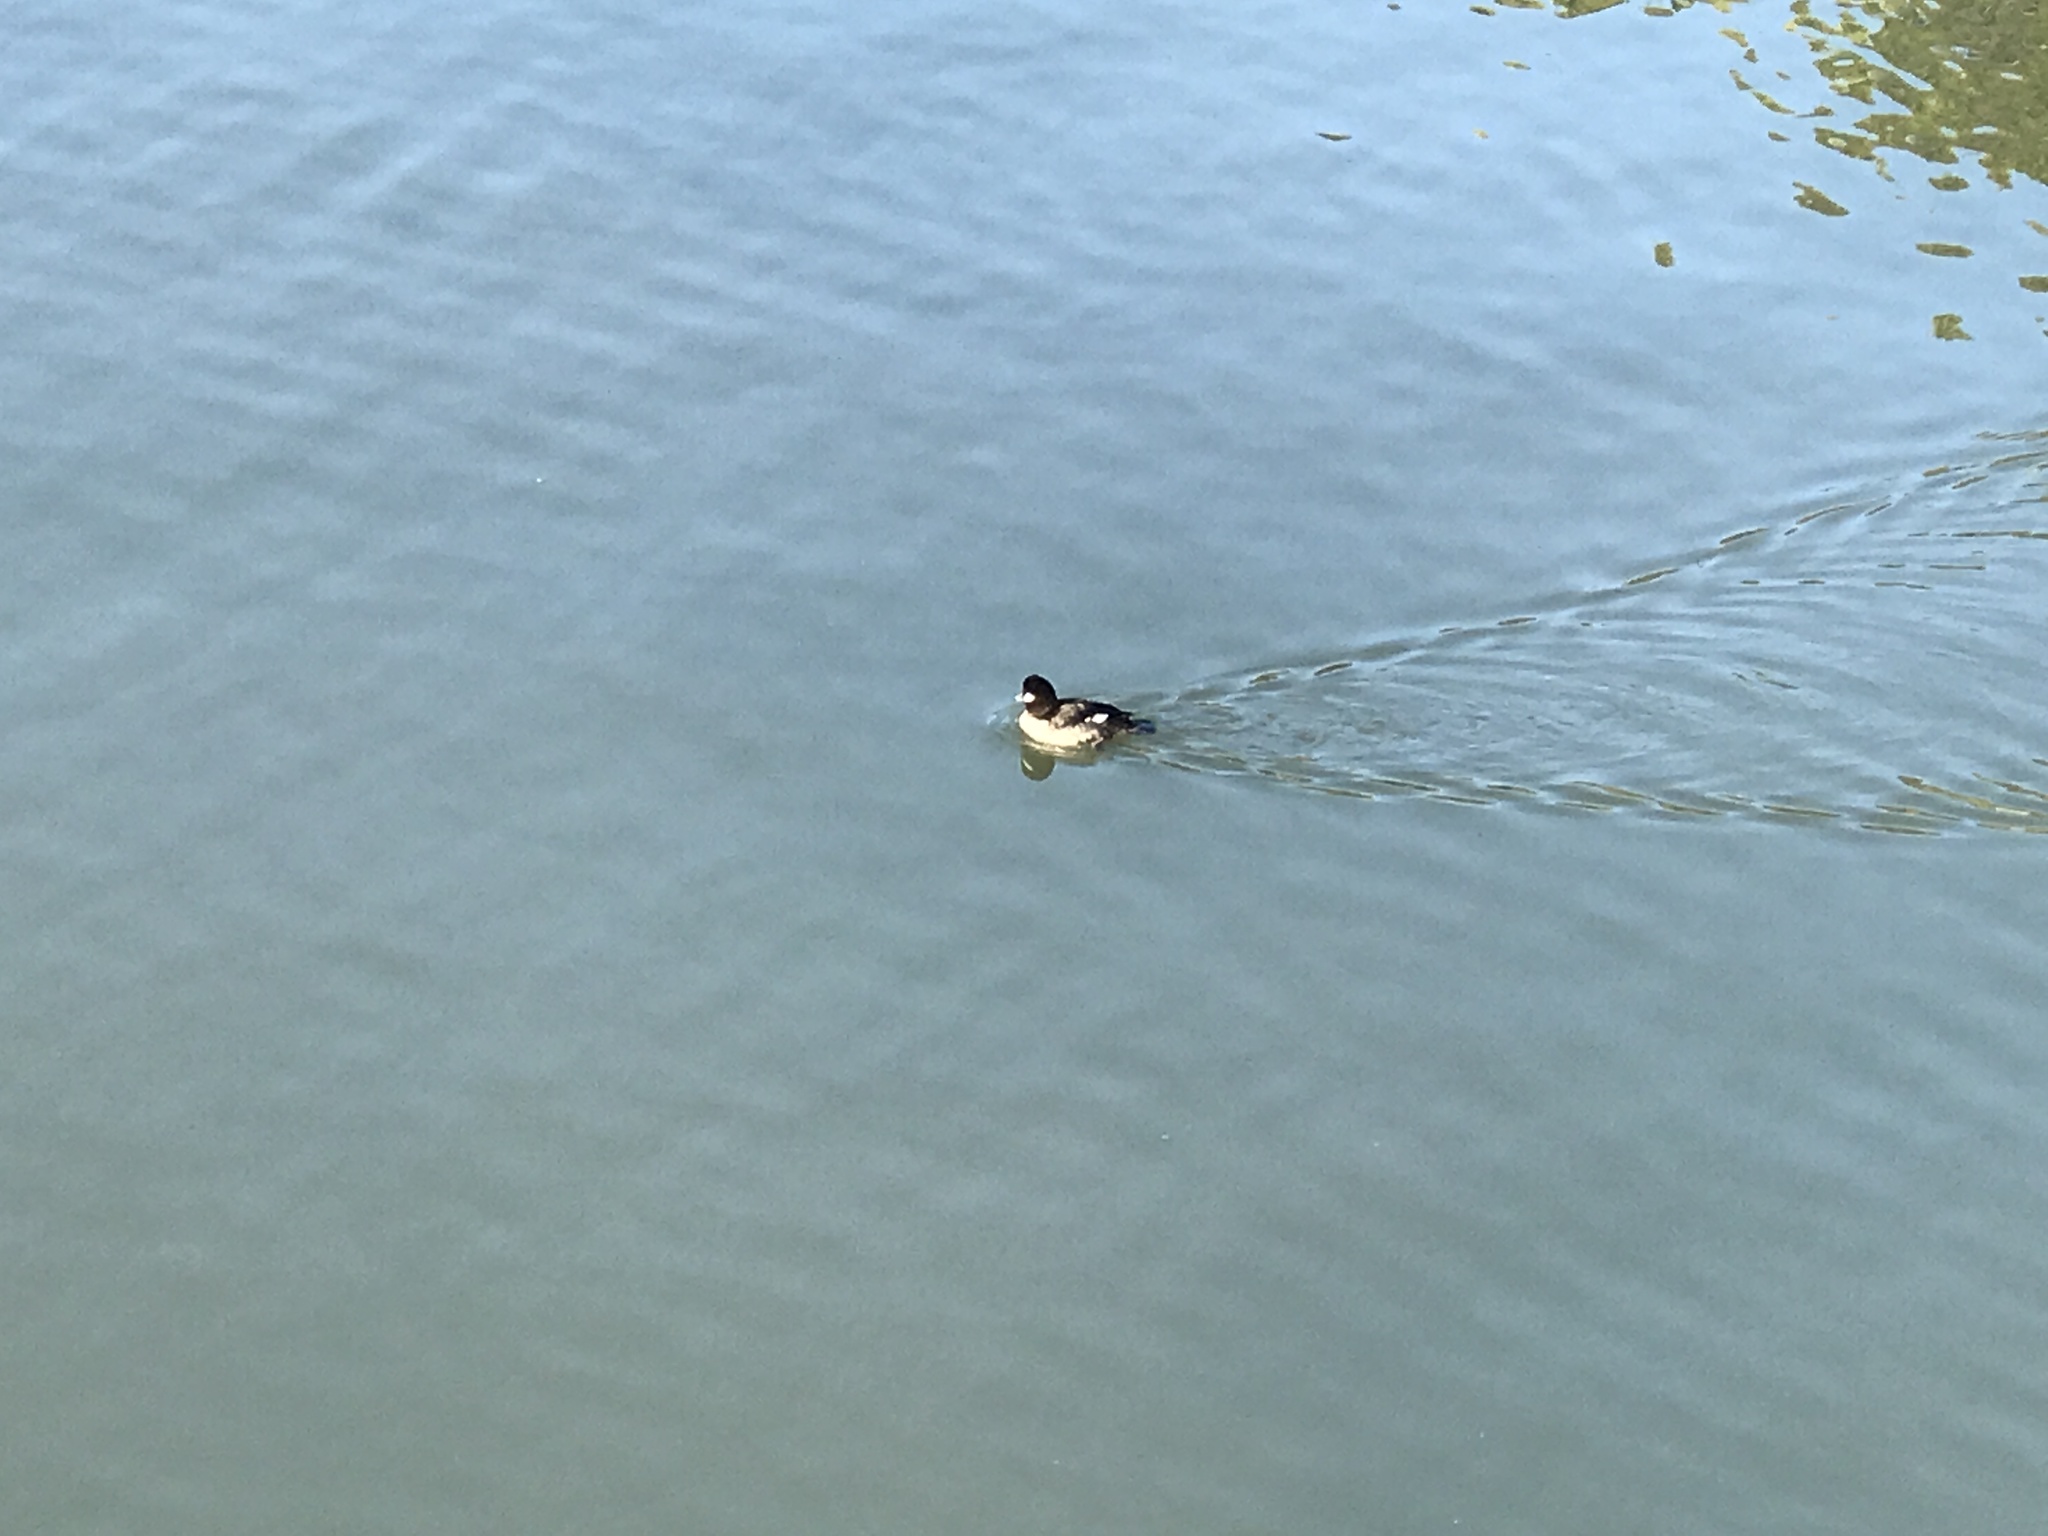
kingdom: Animalia
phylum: Chordata
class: Aves
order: Anseriformes
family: Anatidae
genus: Bucephala
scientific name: Bucephala albeola
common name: Bufflehead
